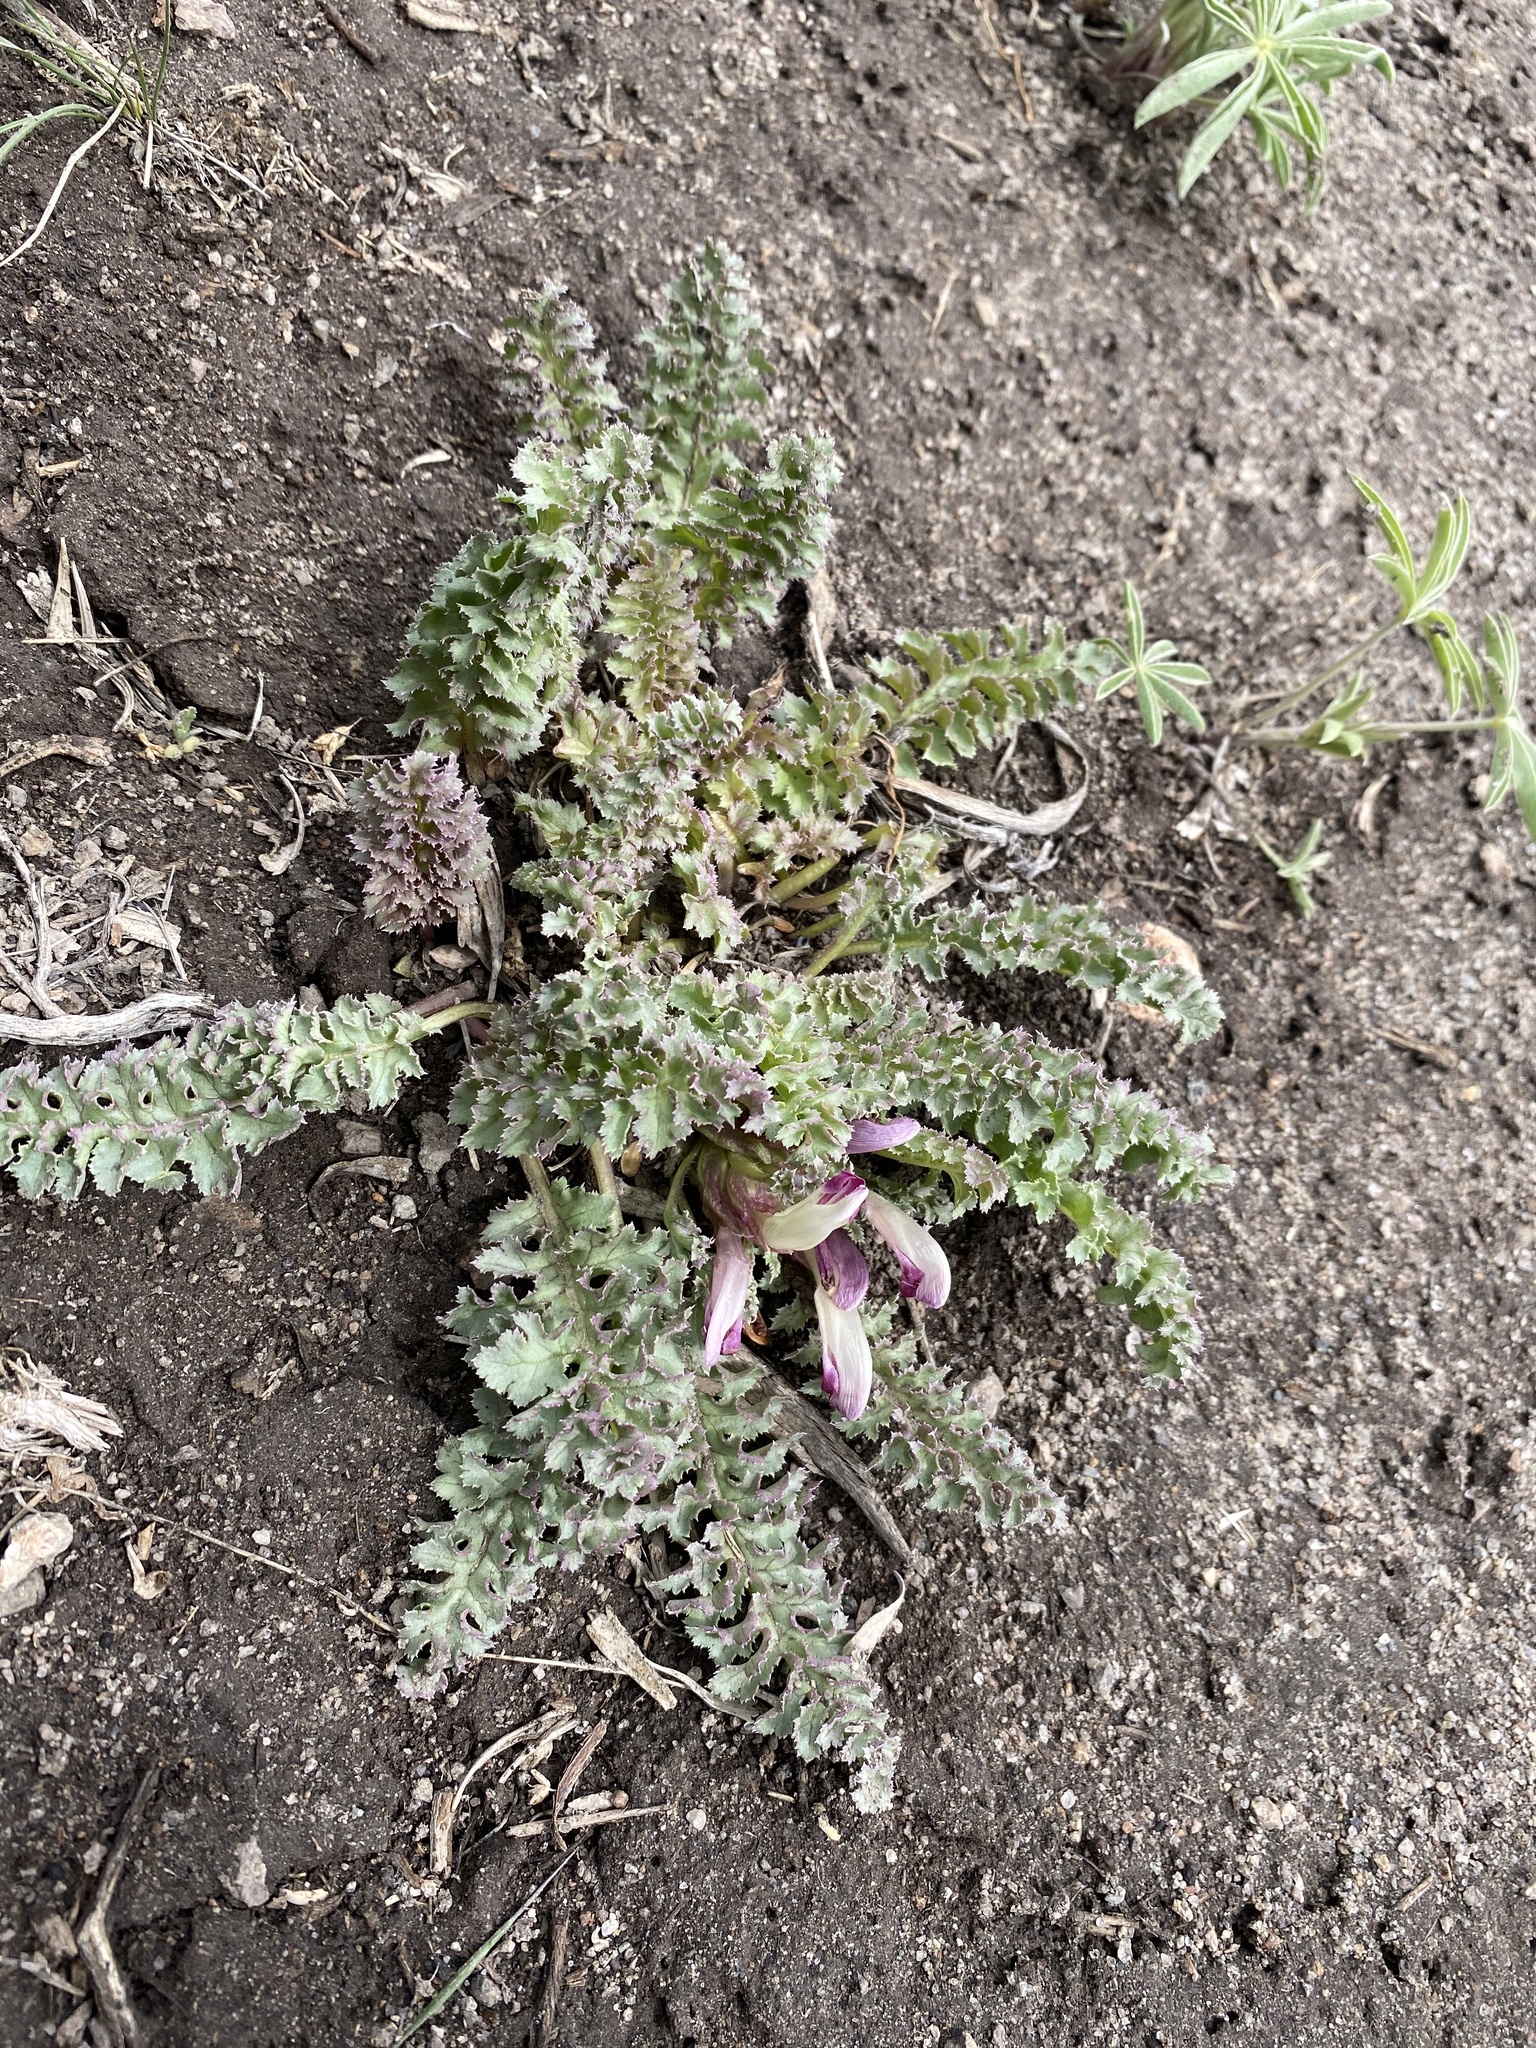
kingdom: Plantae
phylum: Tracheophyta
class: Magnoliopsida
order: Lamiales
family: Orobanchaceae
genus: Pedicularis
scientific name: Pedicularis centranthera
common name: Dwarf lousewort
